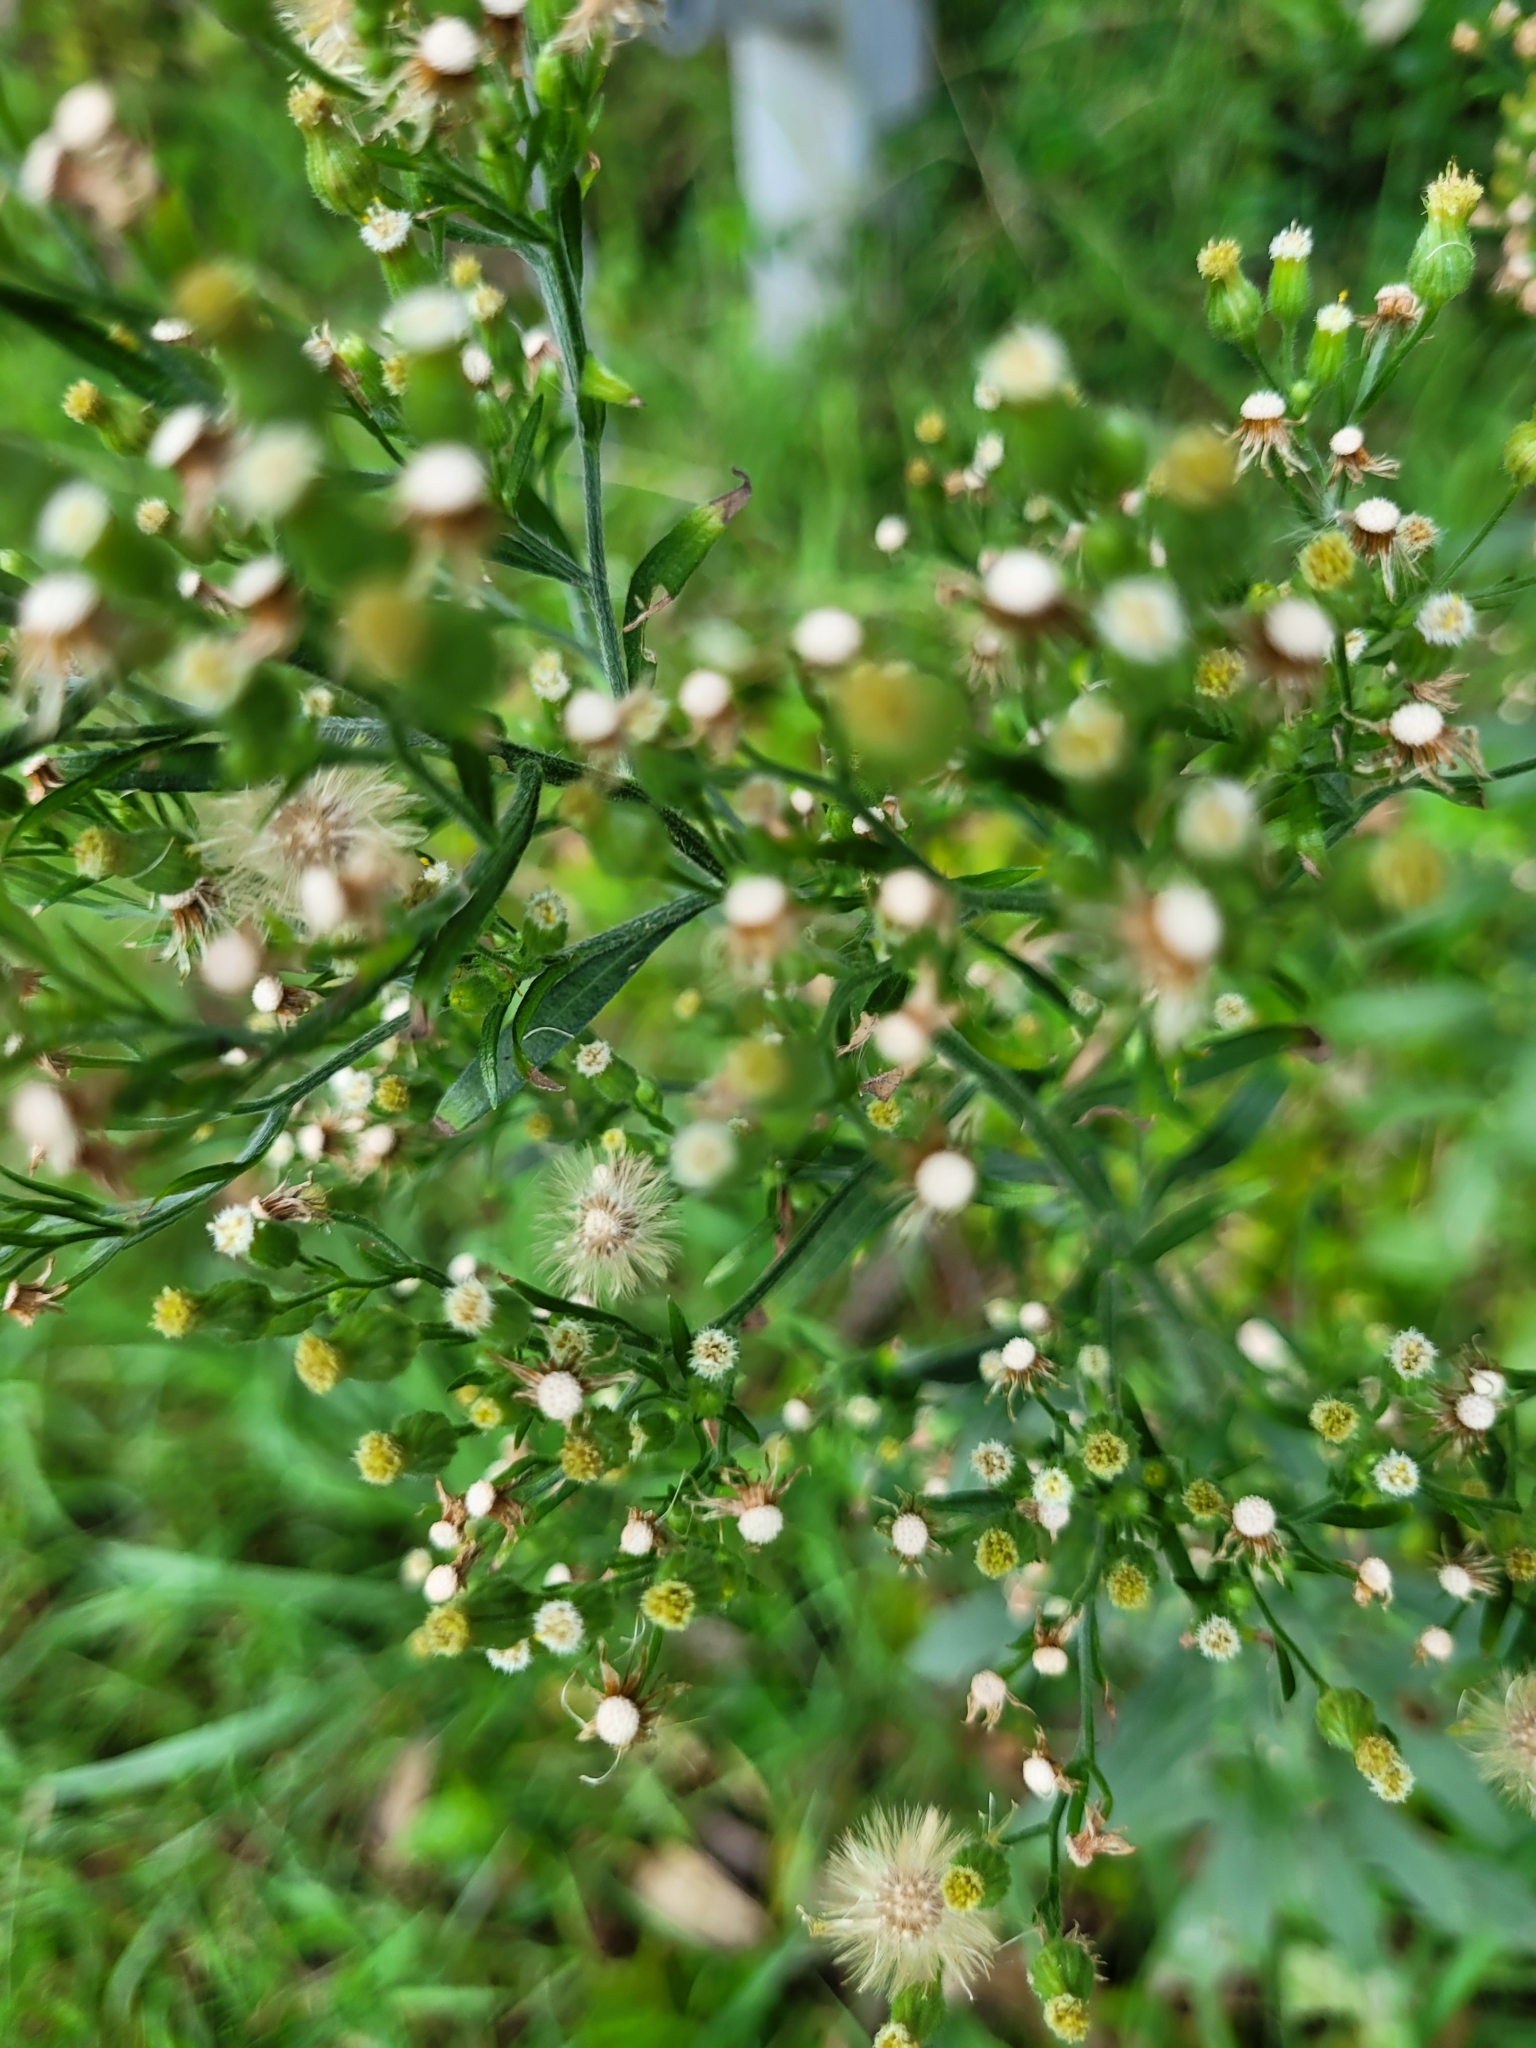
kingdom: Plantae
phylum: Tracheophyta
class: Magnoliopsida
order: Asterales
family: Asteraceae
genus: Erigeron
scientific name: Erigeron sumatrensis
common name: Daisy
